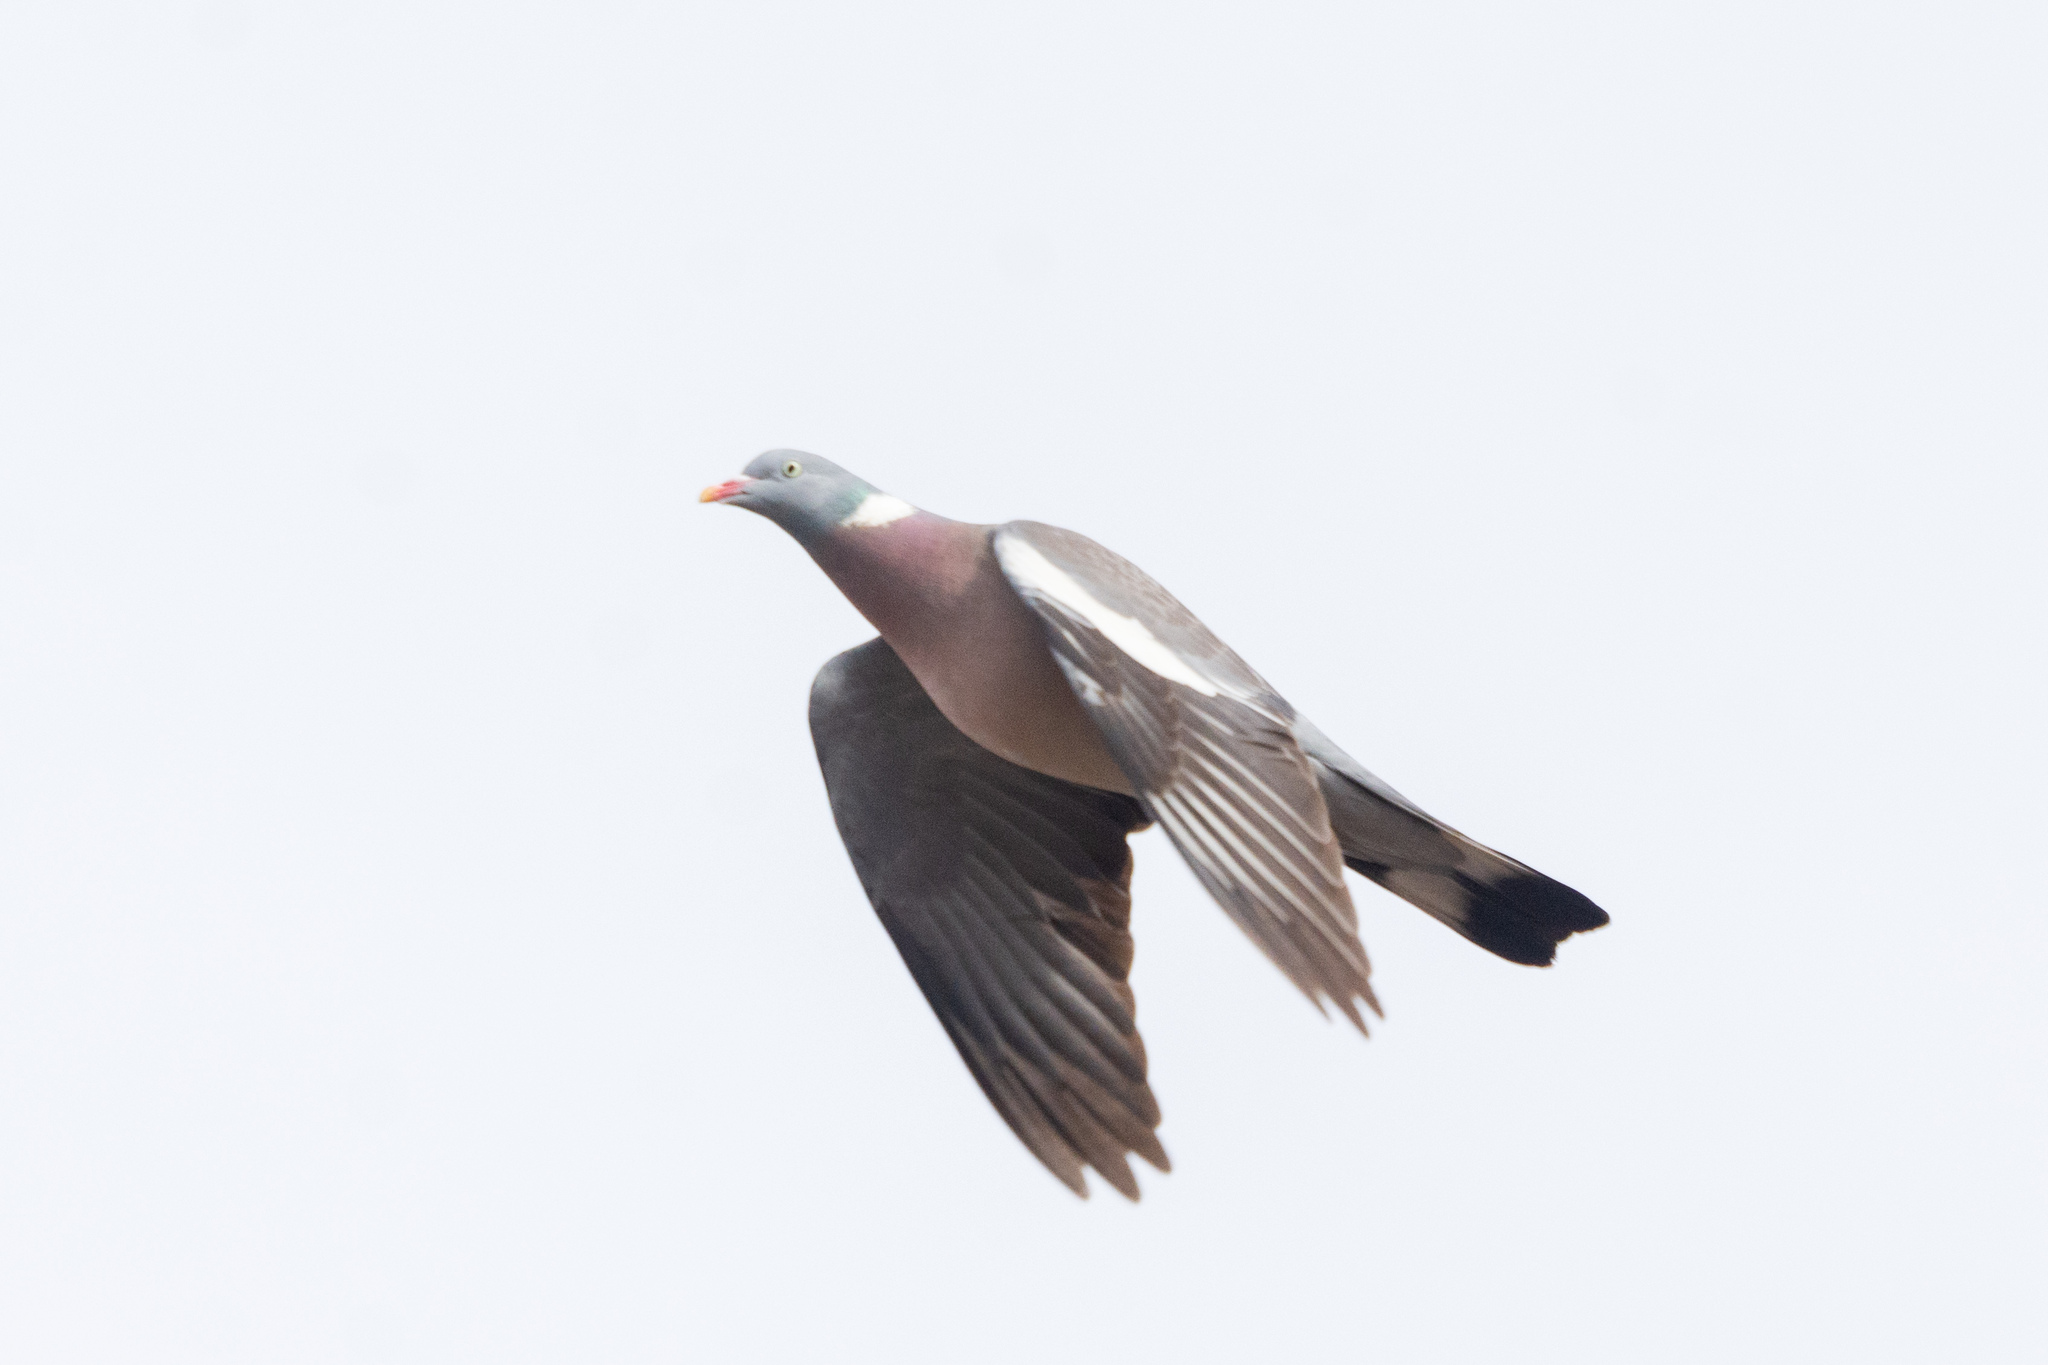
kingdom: Animalia
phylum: Chordata
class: Aves
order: Columbiformes
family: Columbidae
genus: Columba
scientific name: Columba palumbus
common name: Common wood pigeon
